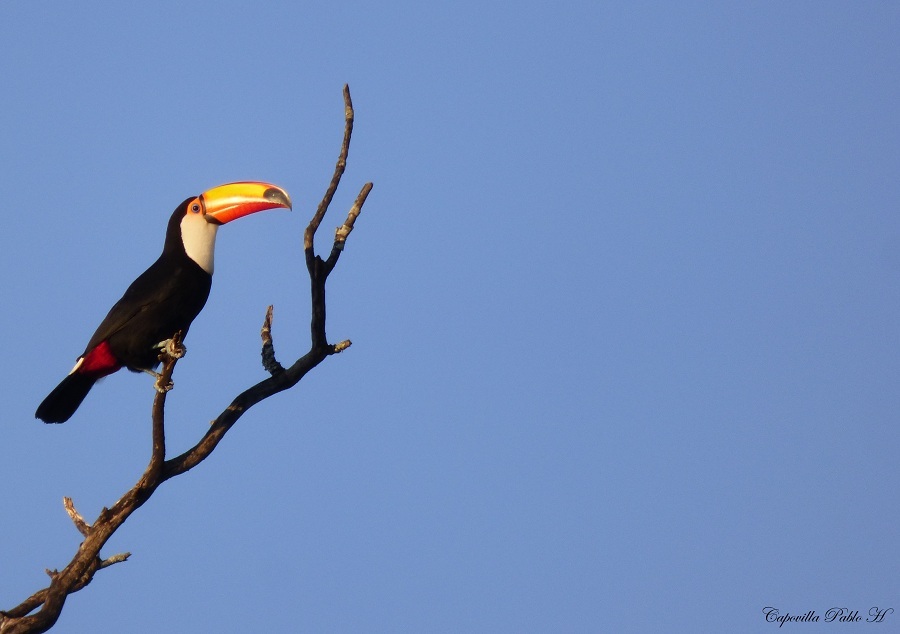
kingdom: Animalia
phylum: Chordata
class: Aves
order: Piciformes
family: Ramphastidae
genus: Ramphastos
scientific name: Ramphastos toco
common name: Toco toucan
